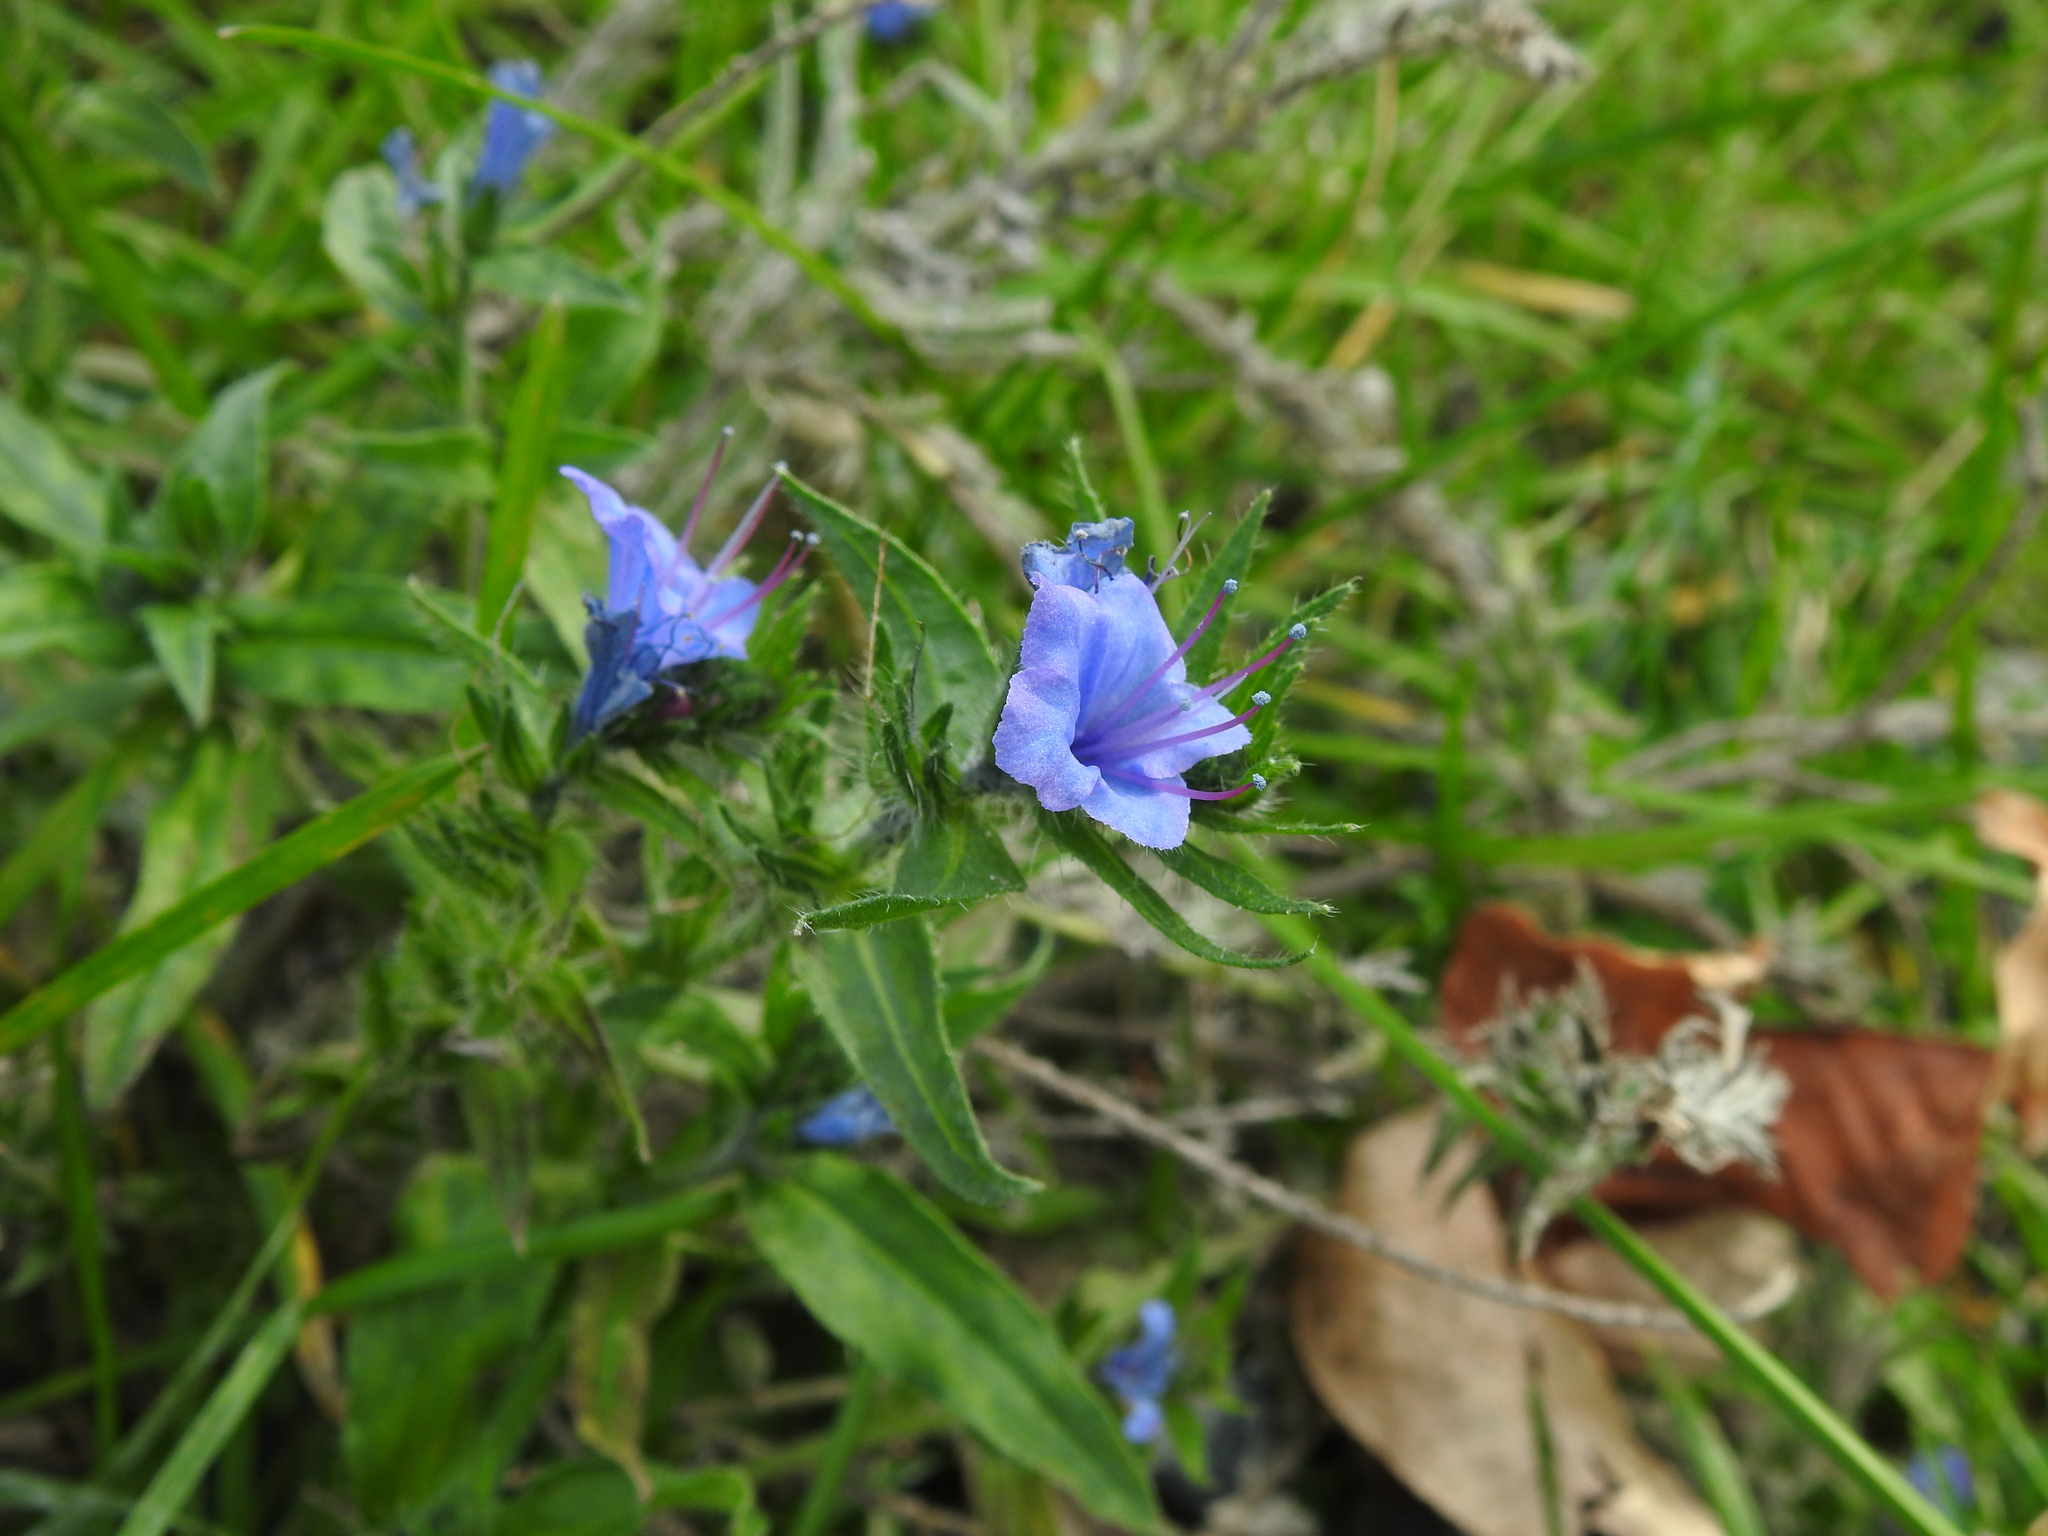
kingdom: Plantae
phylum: Tracheophyta
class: Magnoliopsida
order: Boraginales
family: Boraginaceae
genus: Echium
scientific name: Echium vulgare
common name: Common viper's bugloss
